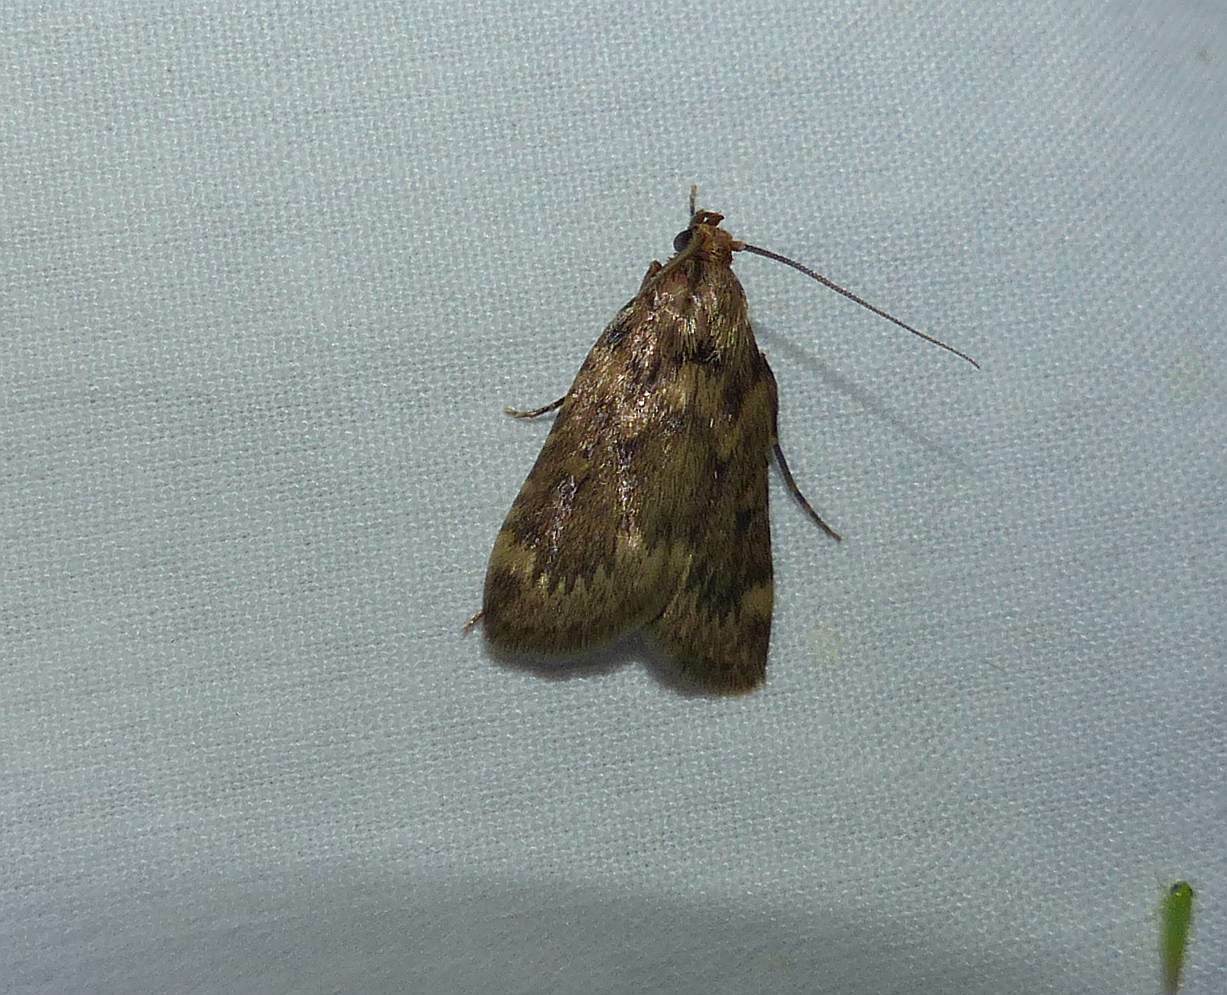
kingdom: Animalia
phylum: Arthropoda
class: Insecta
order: Lepidoptera
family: Pyralidae
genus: Aglossa
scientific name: Aglossa cuprina
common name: Grease moth
